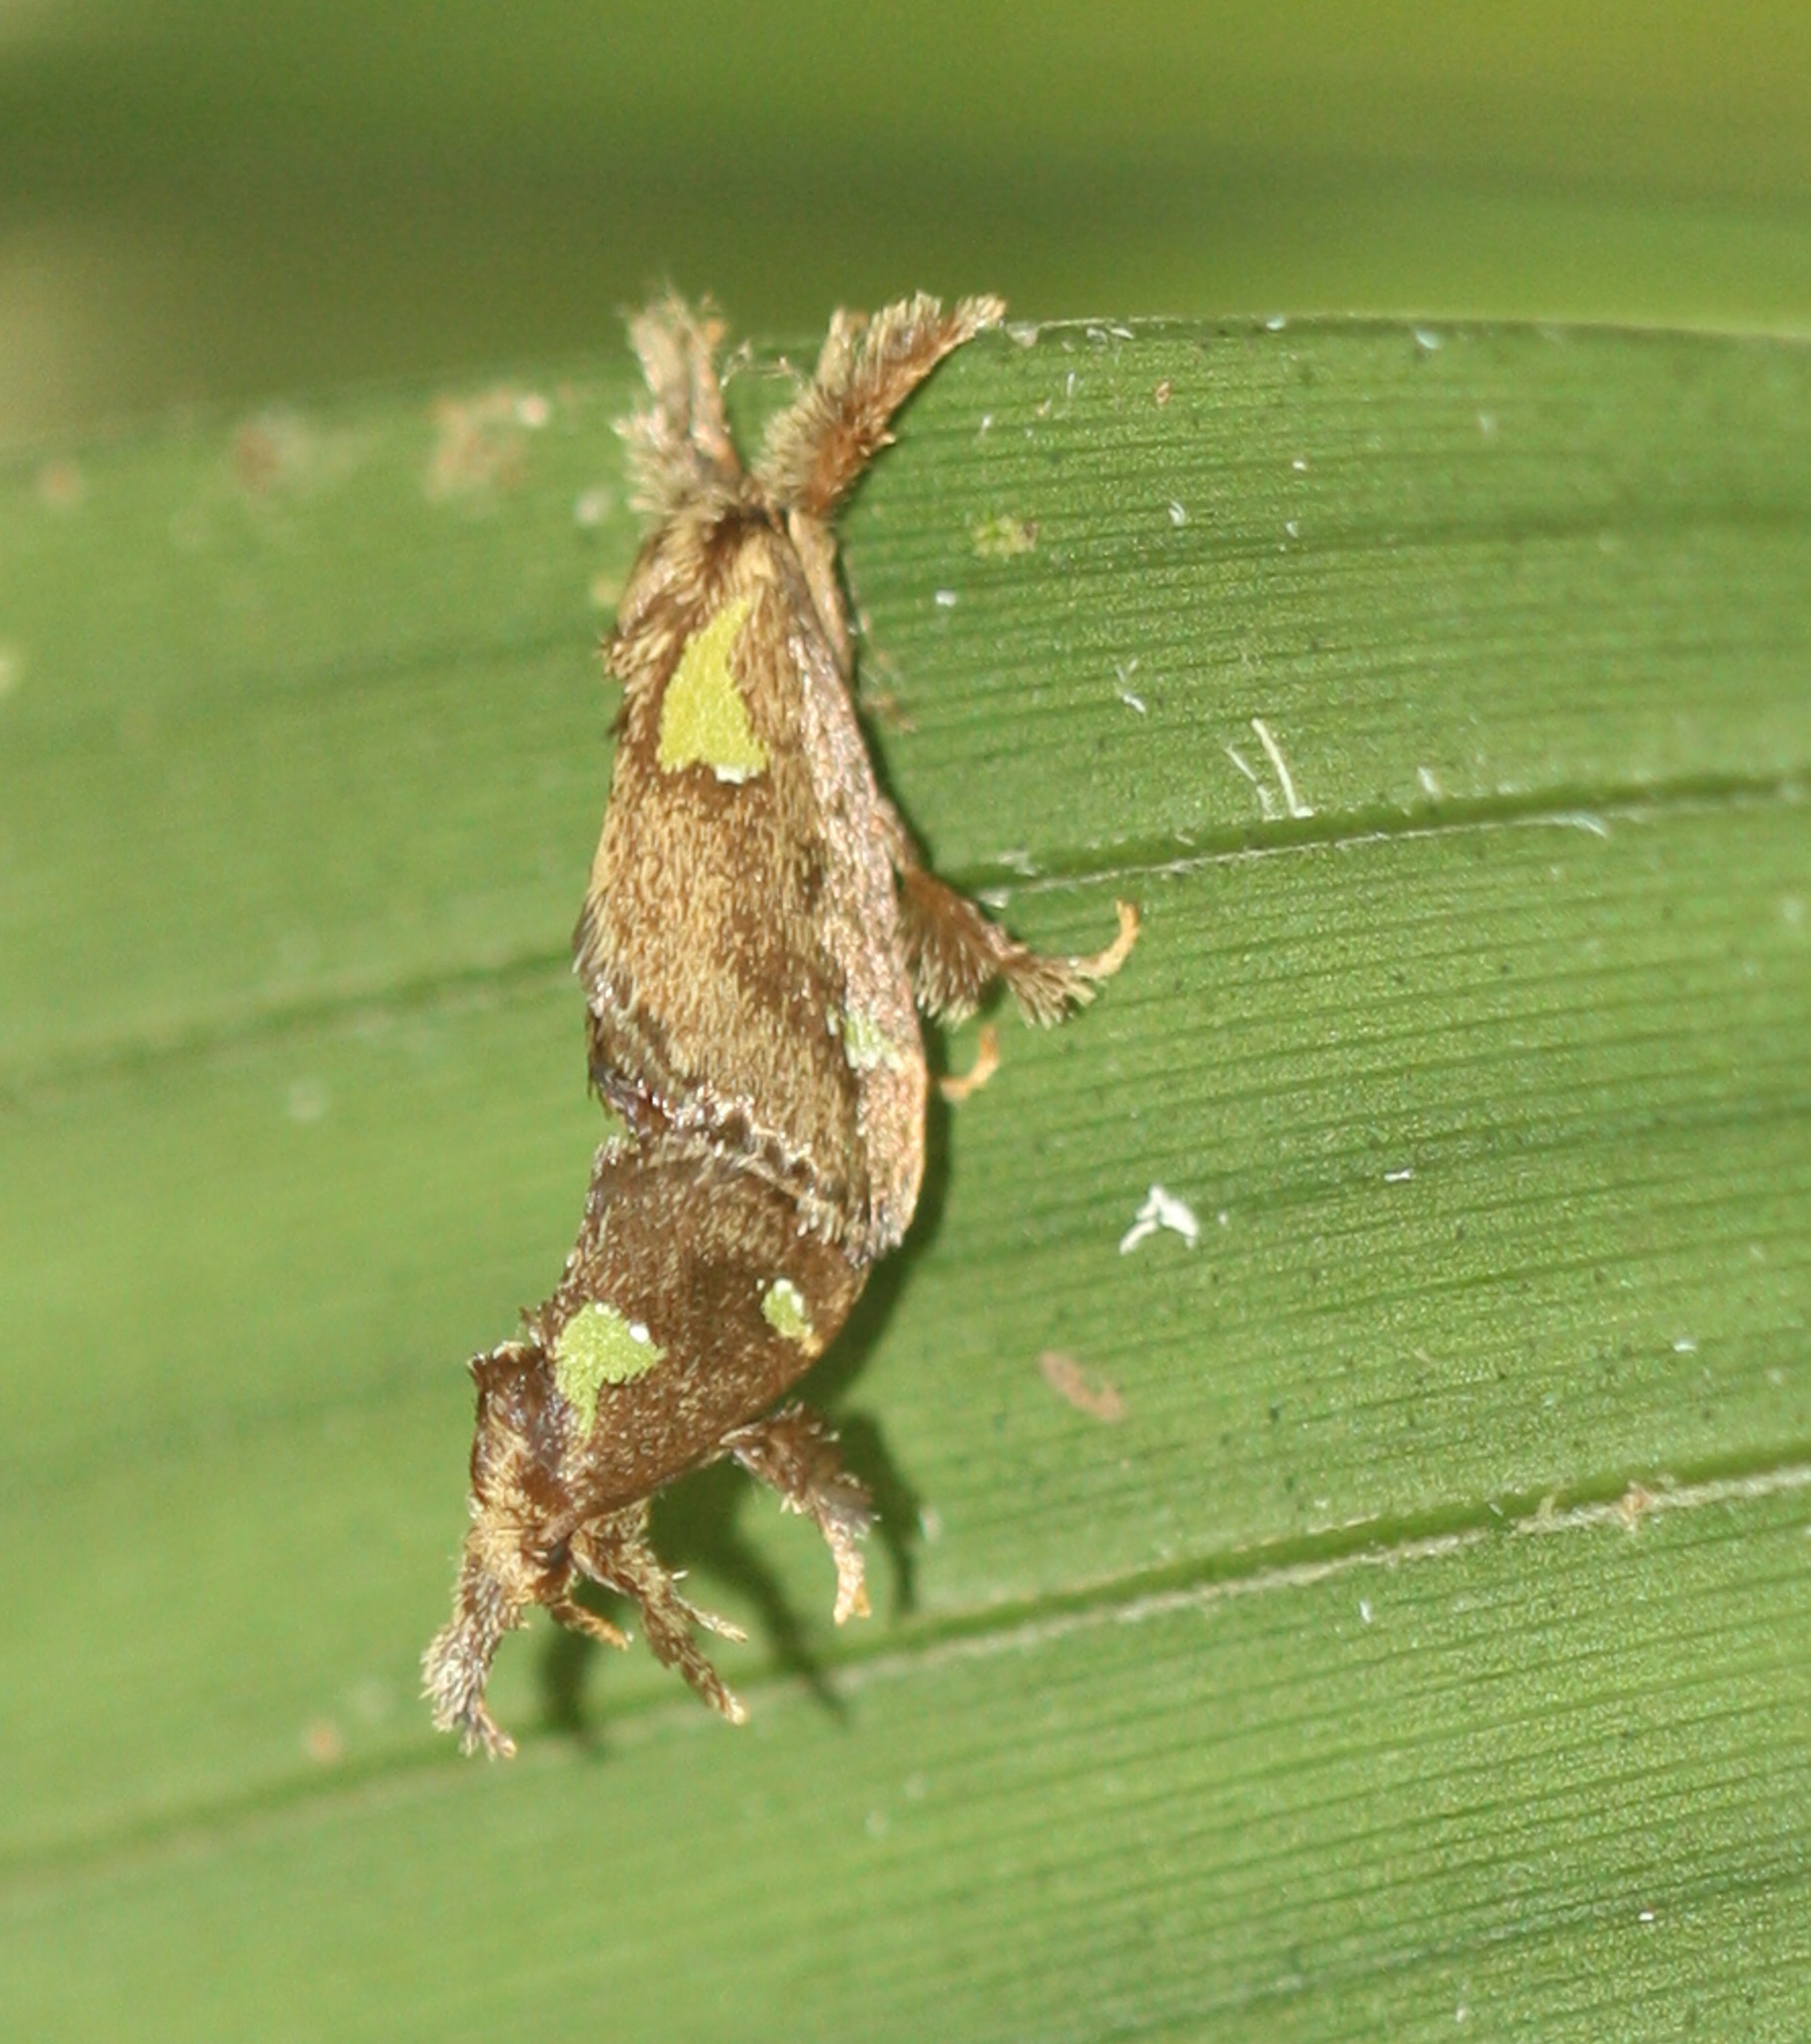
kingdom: Animalia
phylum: Arthropoda
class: Insecta
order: Lepidoptera
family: Limacodidae
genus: Euclea
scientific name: Euclea microcippus
